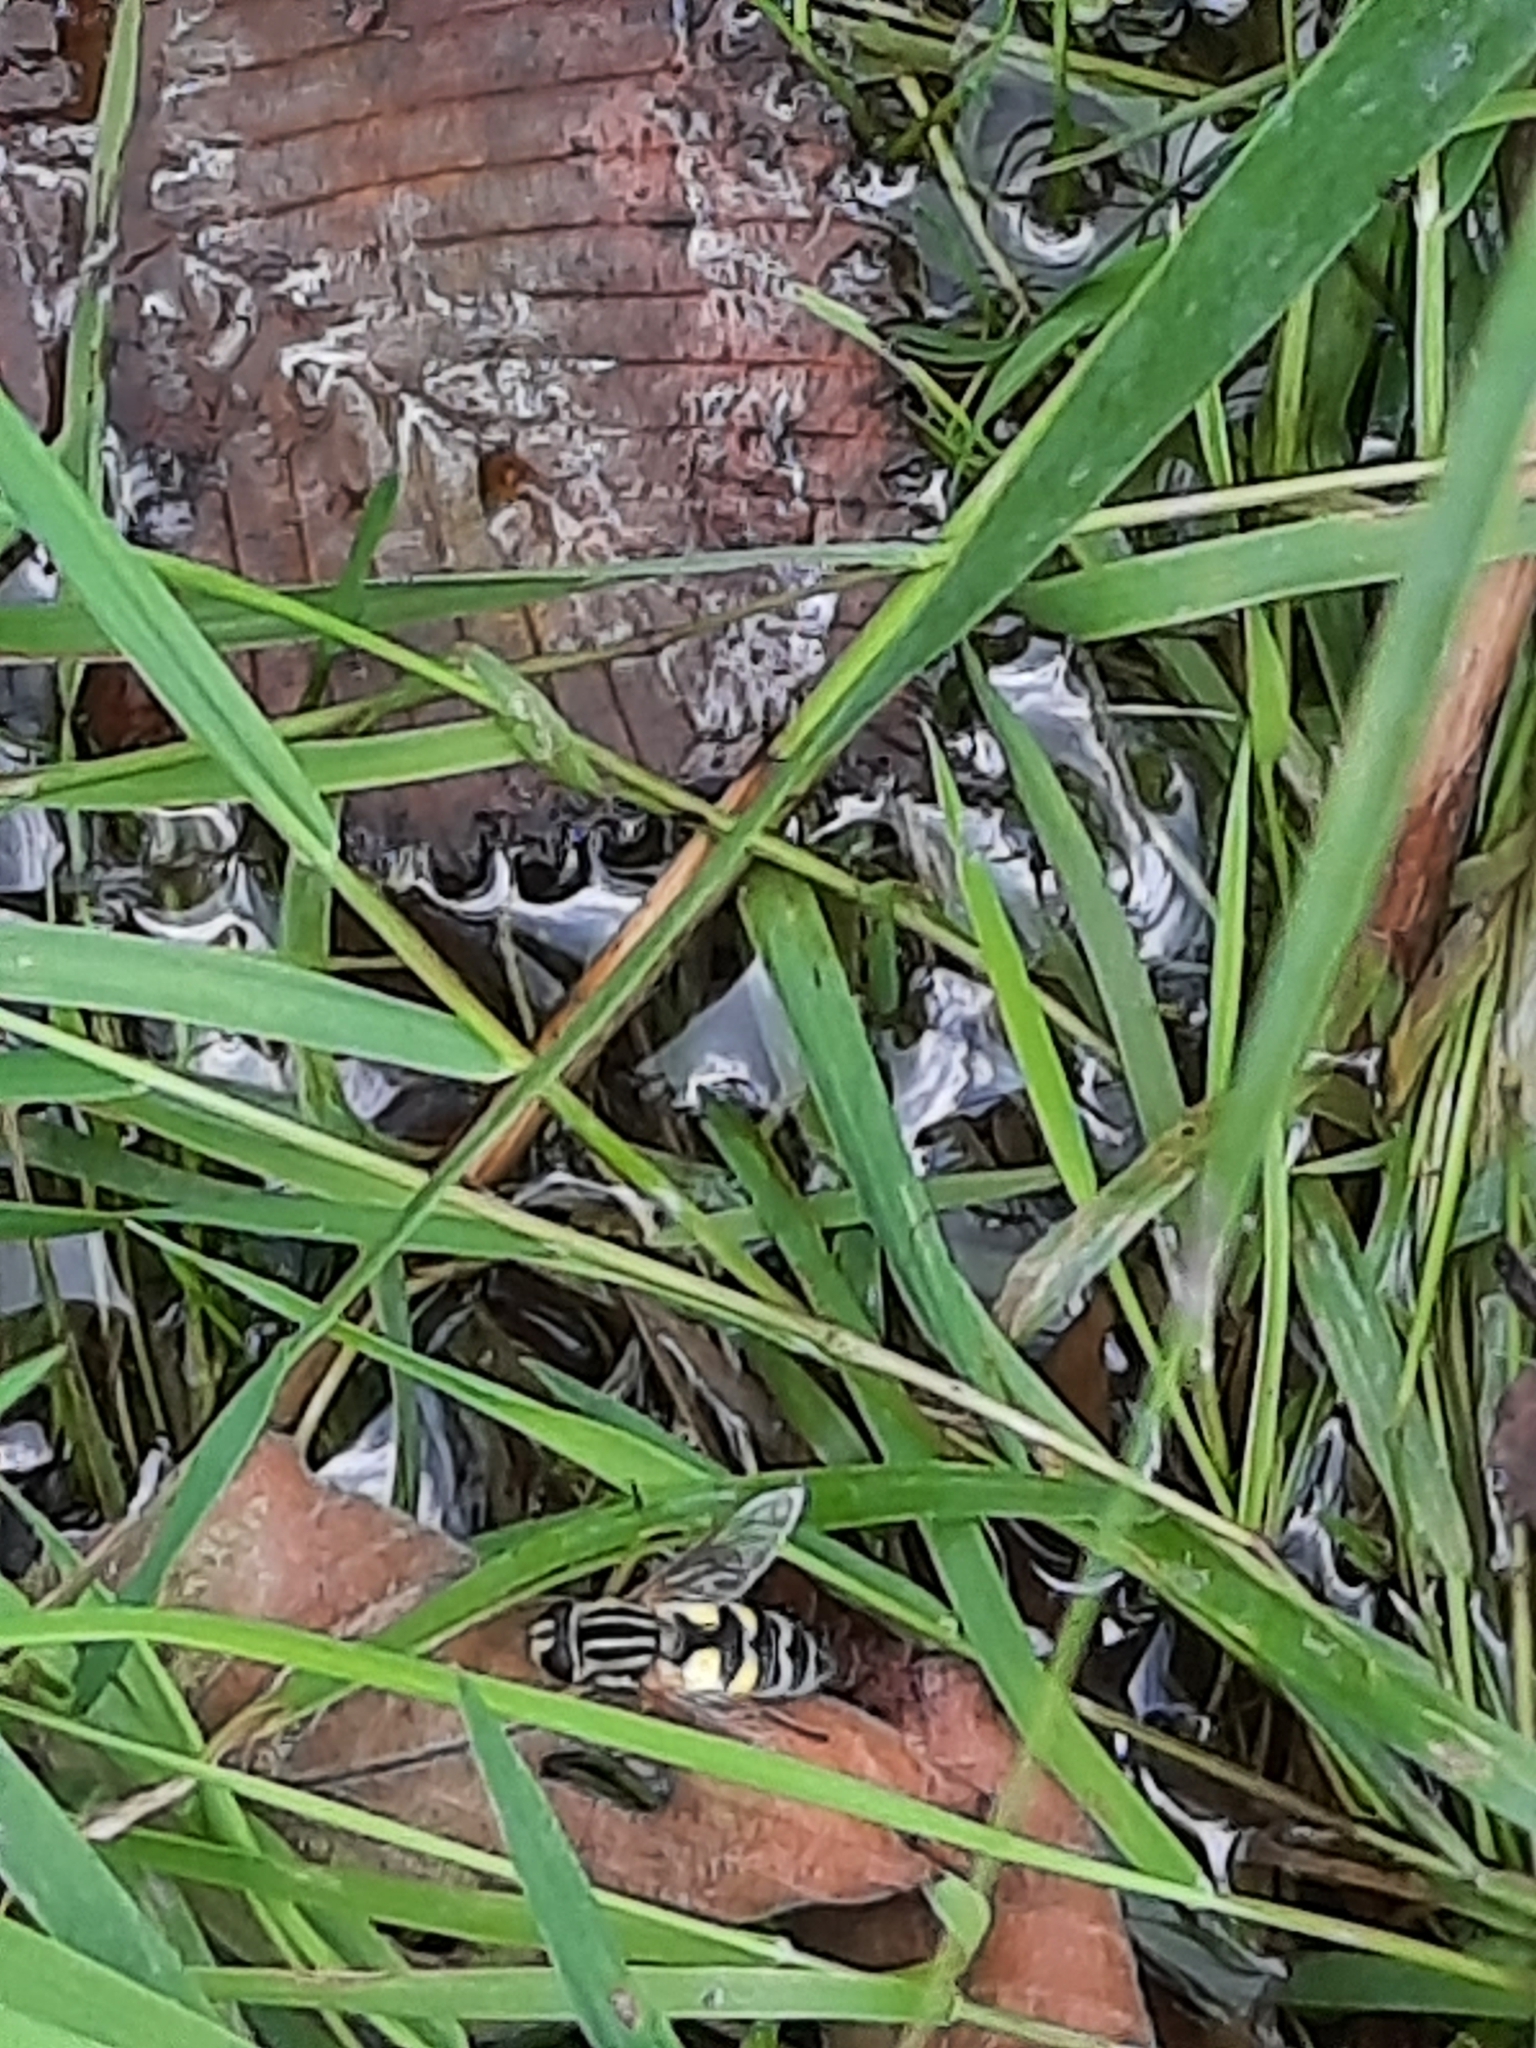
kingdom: Animalia
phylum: Arthropoda
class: Insecta
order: Diptera
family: Syrphidae
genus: Helophilus
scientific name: Helophilus trivittatus
